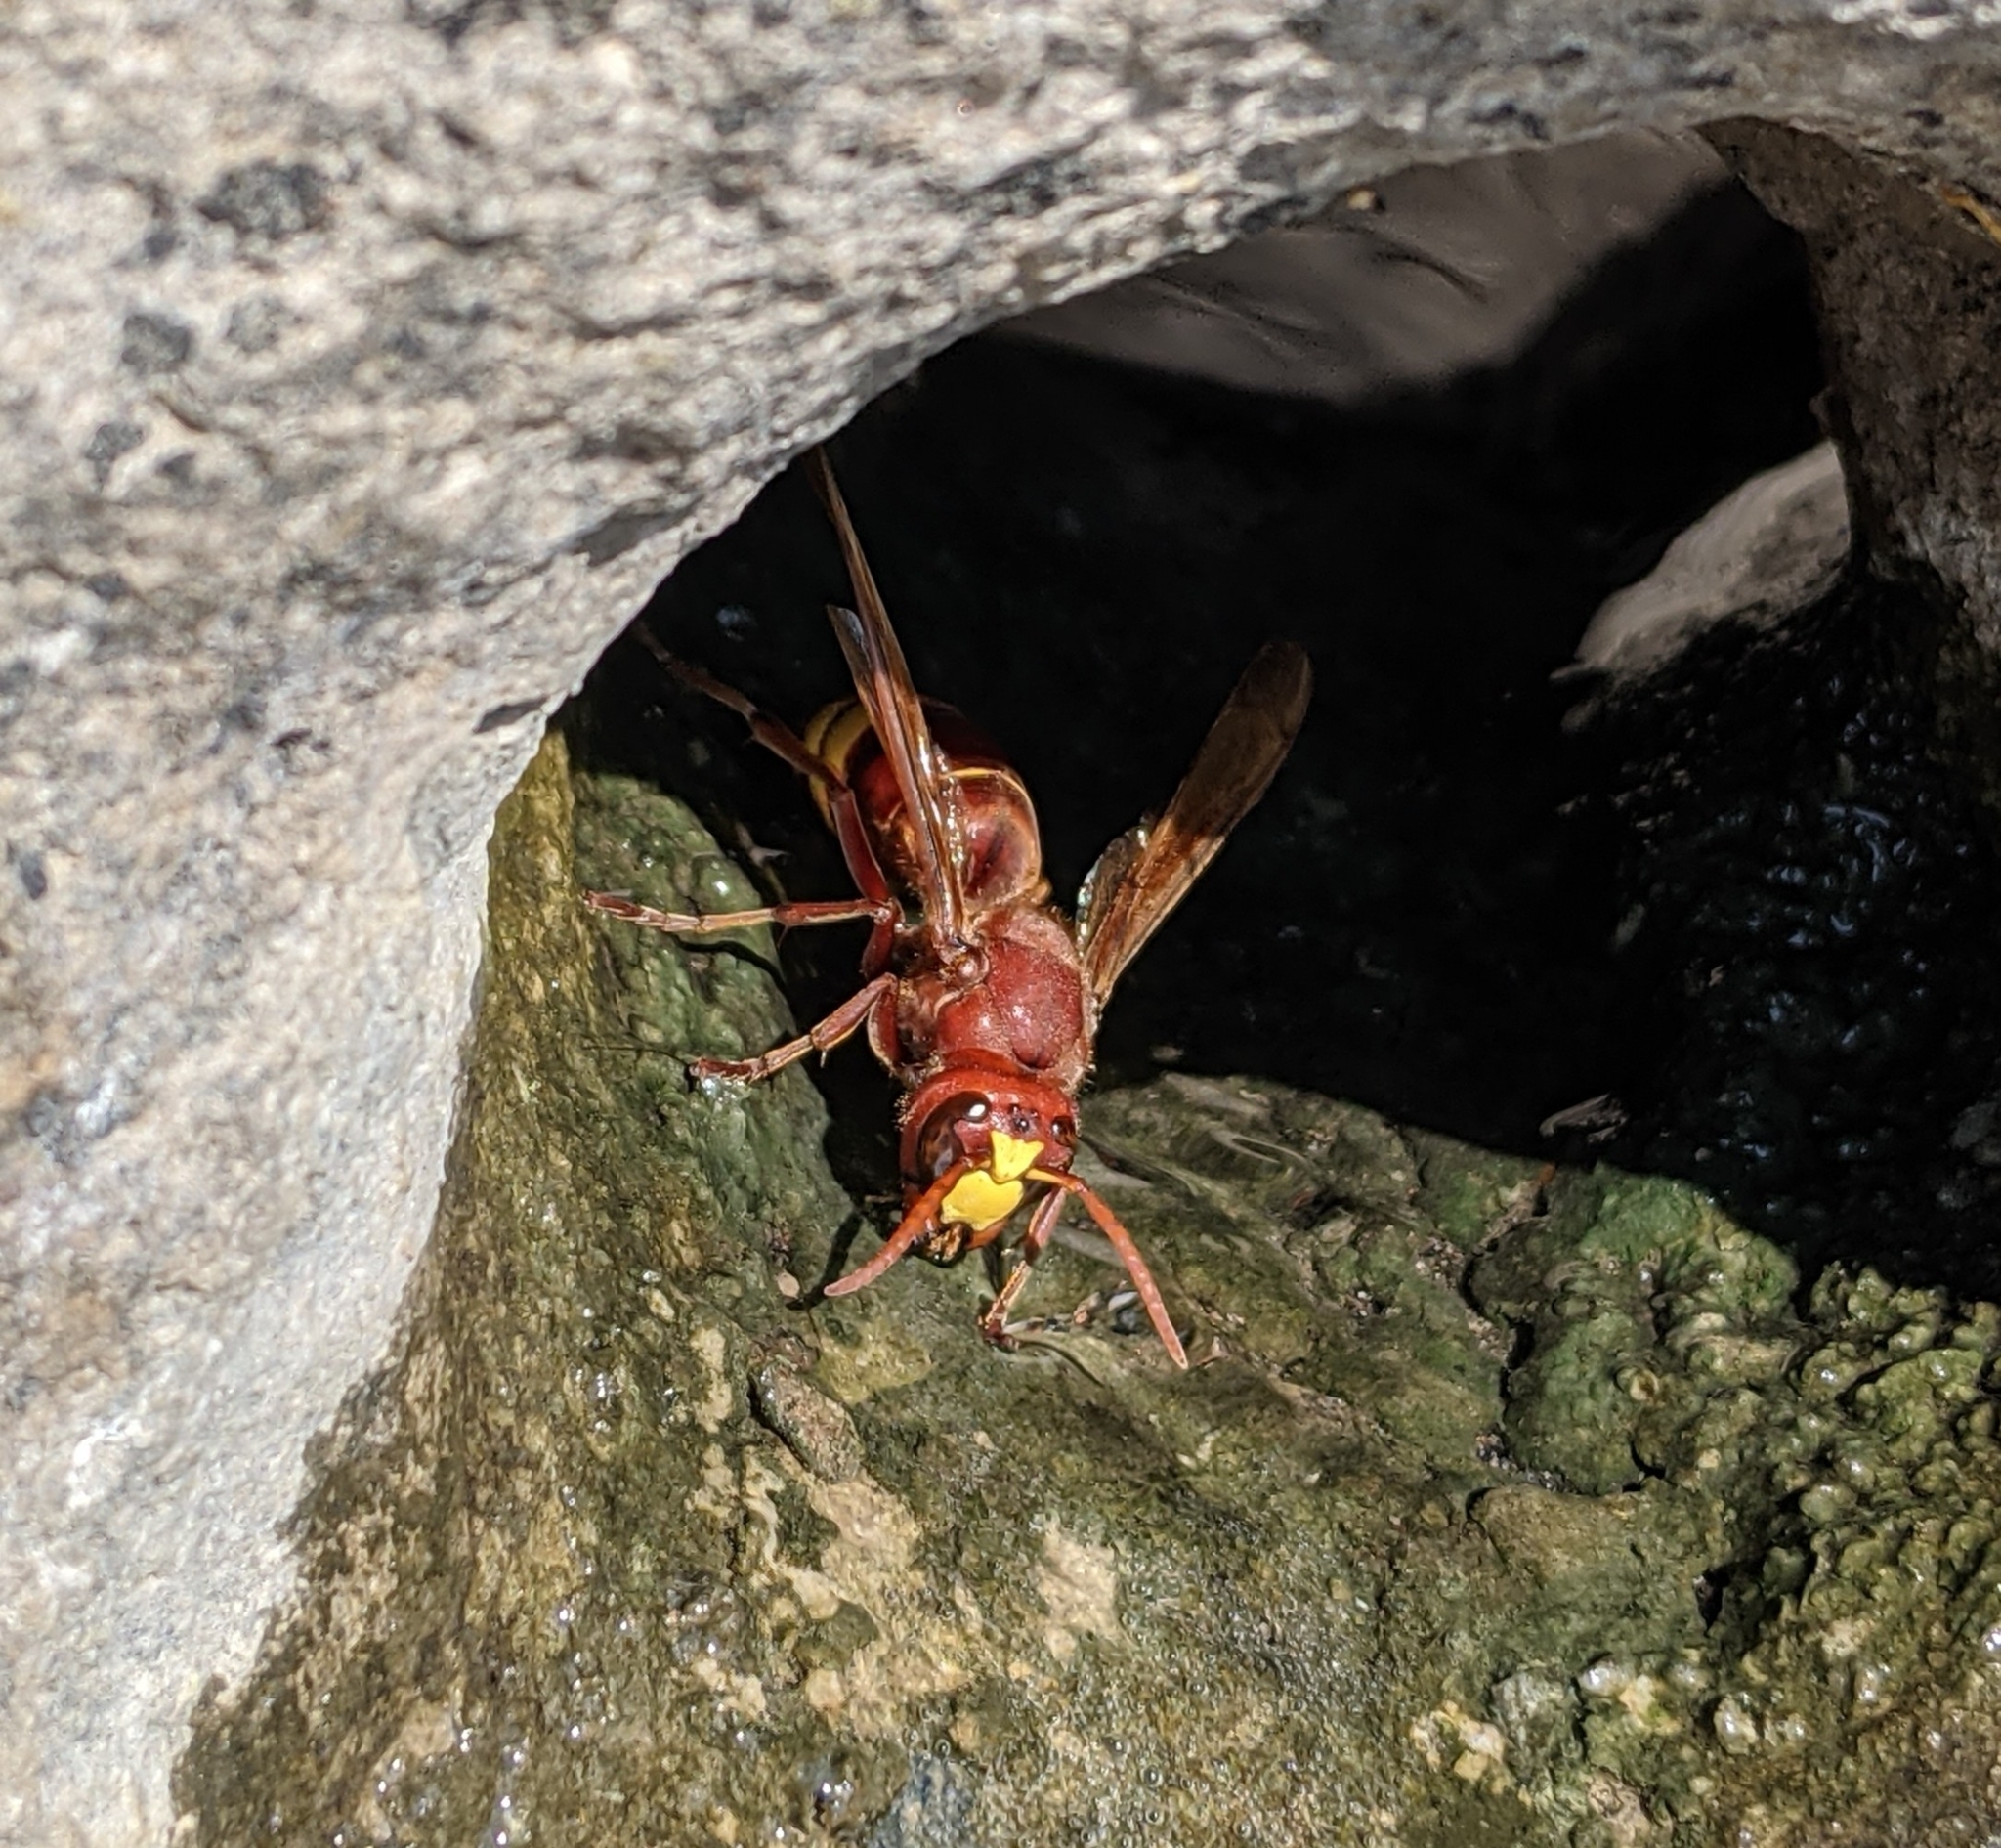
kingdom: Animalia
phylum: Arthropoda
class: Insecta
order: Hymenoptera
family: Vespidae
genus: Vespa
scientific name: Vespa orientalis
